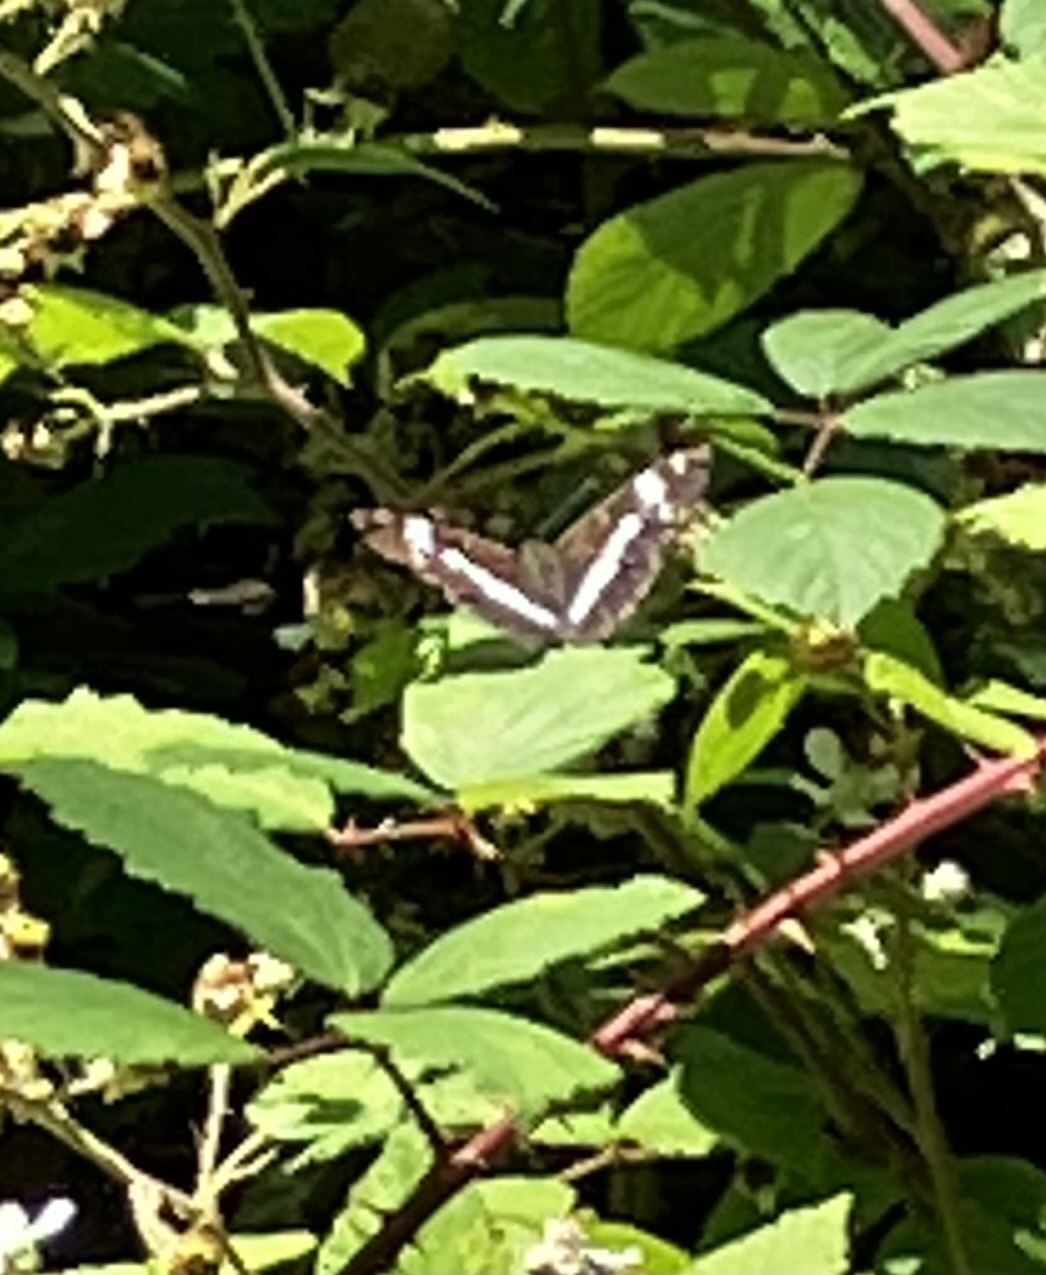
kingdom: Animalia
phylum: Arthropoda
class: Insecta
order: Lepidoptera
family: Nymphalidae
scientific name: Nymphalidae
